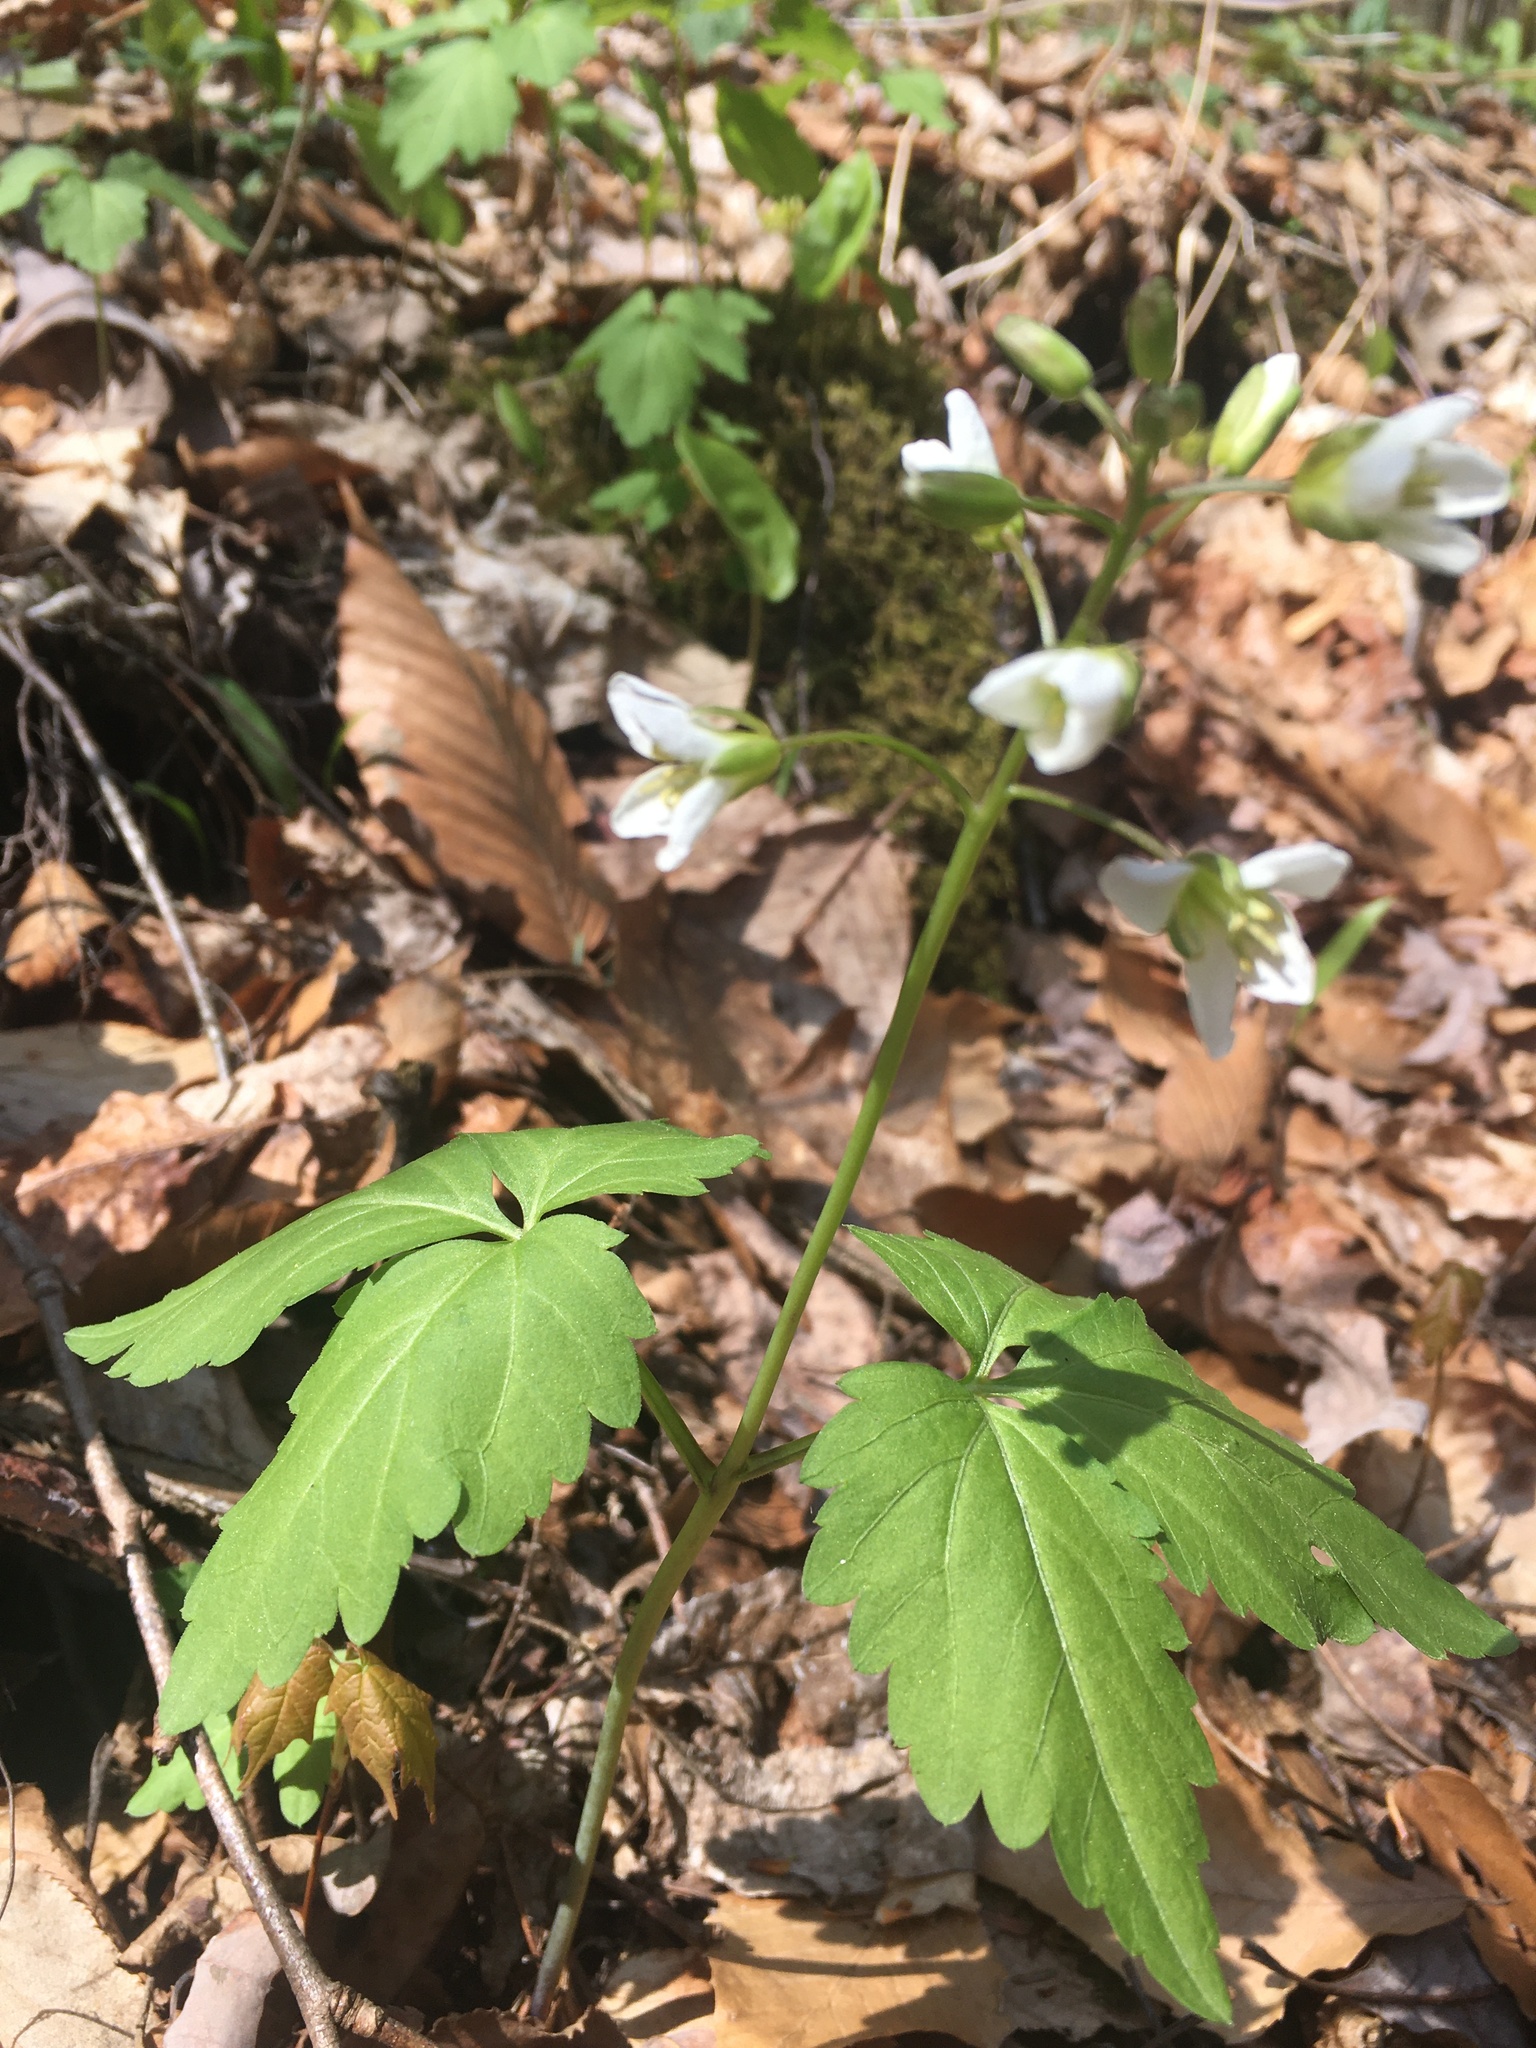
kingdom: Plantae
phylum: Tracheophyta
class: Magnoliopsida
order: Brassicales
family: Brassicaceae
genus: Cardamine
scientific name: Cardamine diphylla
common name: Broad-leaved toothwort
